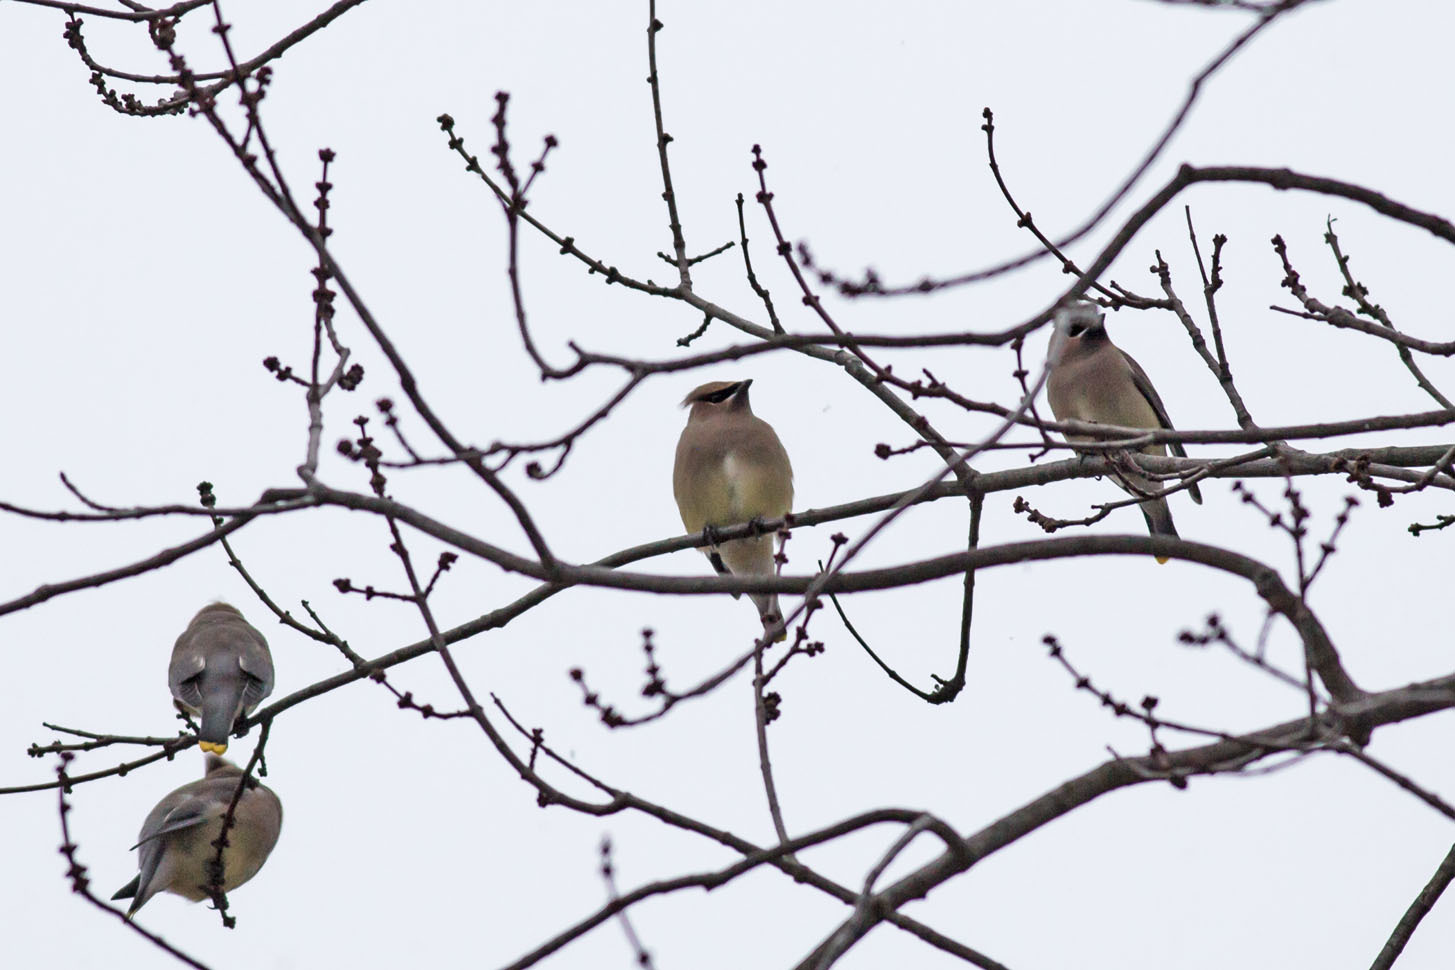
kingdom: Animalia
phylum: Chordata
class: Aves
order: Passeriformes
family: Bombycillidae
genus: Bombycilla
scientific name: Bombycilla cedrorum
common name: Cedar waxwing
